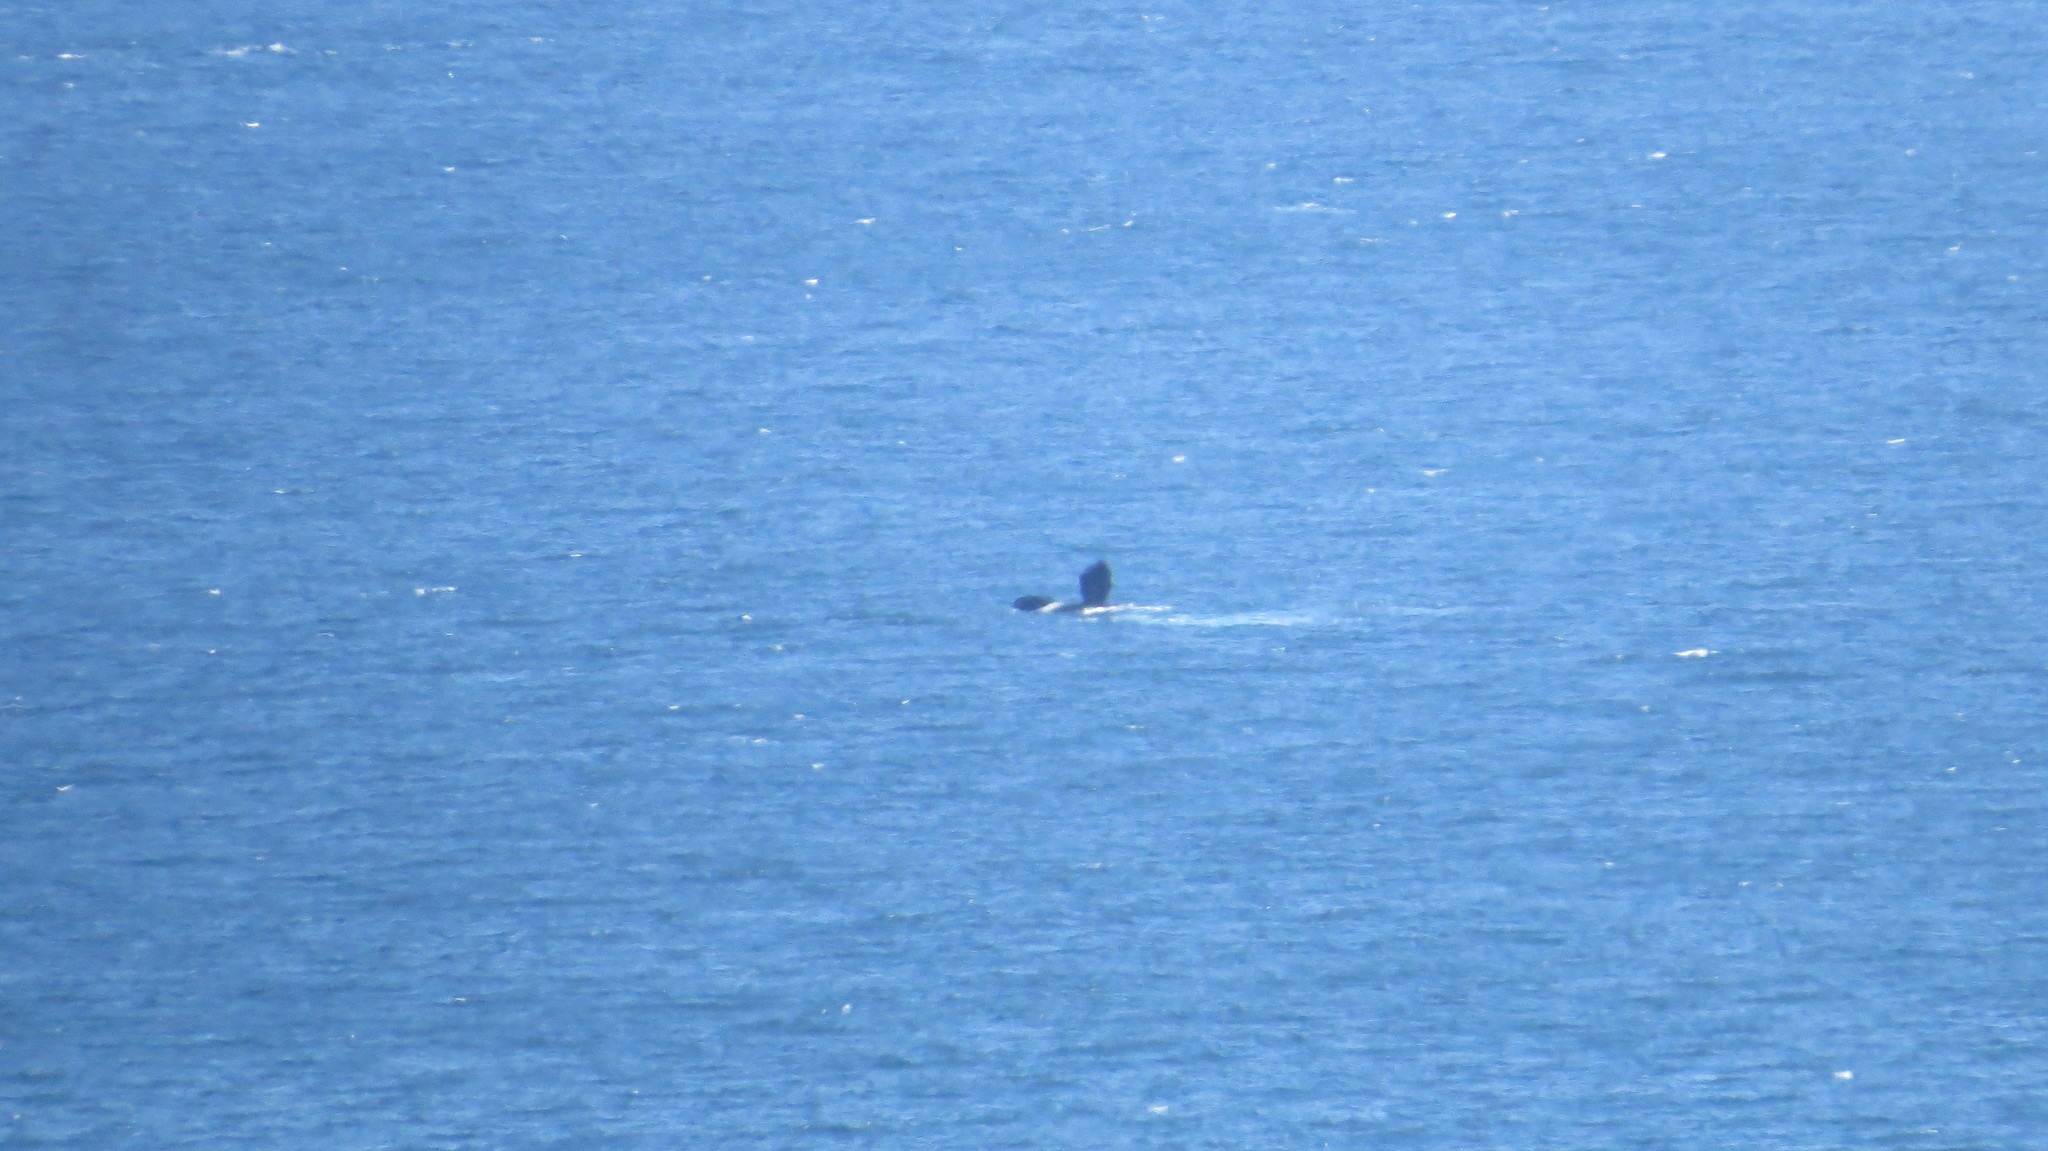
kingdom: Animalia
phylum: Chordata
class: Mammalia
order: Cetacea
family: Balaenidae
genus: Eubalaena
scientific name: Eubalaena australis
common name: Southern right whale
